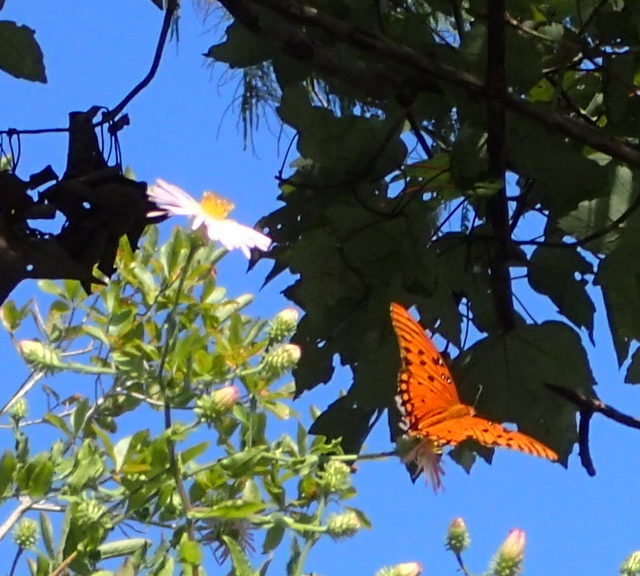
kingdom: Animalia
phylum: Arthropoda
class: Insecta
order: Lepidoptera
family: Nymphalidae
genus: Dione
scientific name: Dione vanillae
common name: Gulf fritillary
